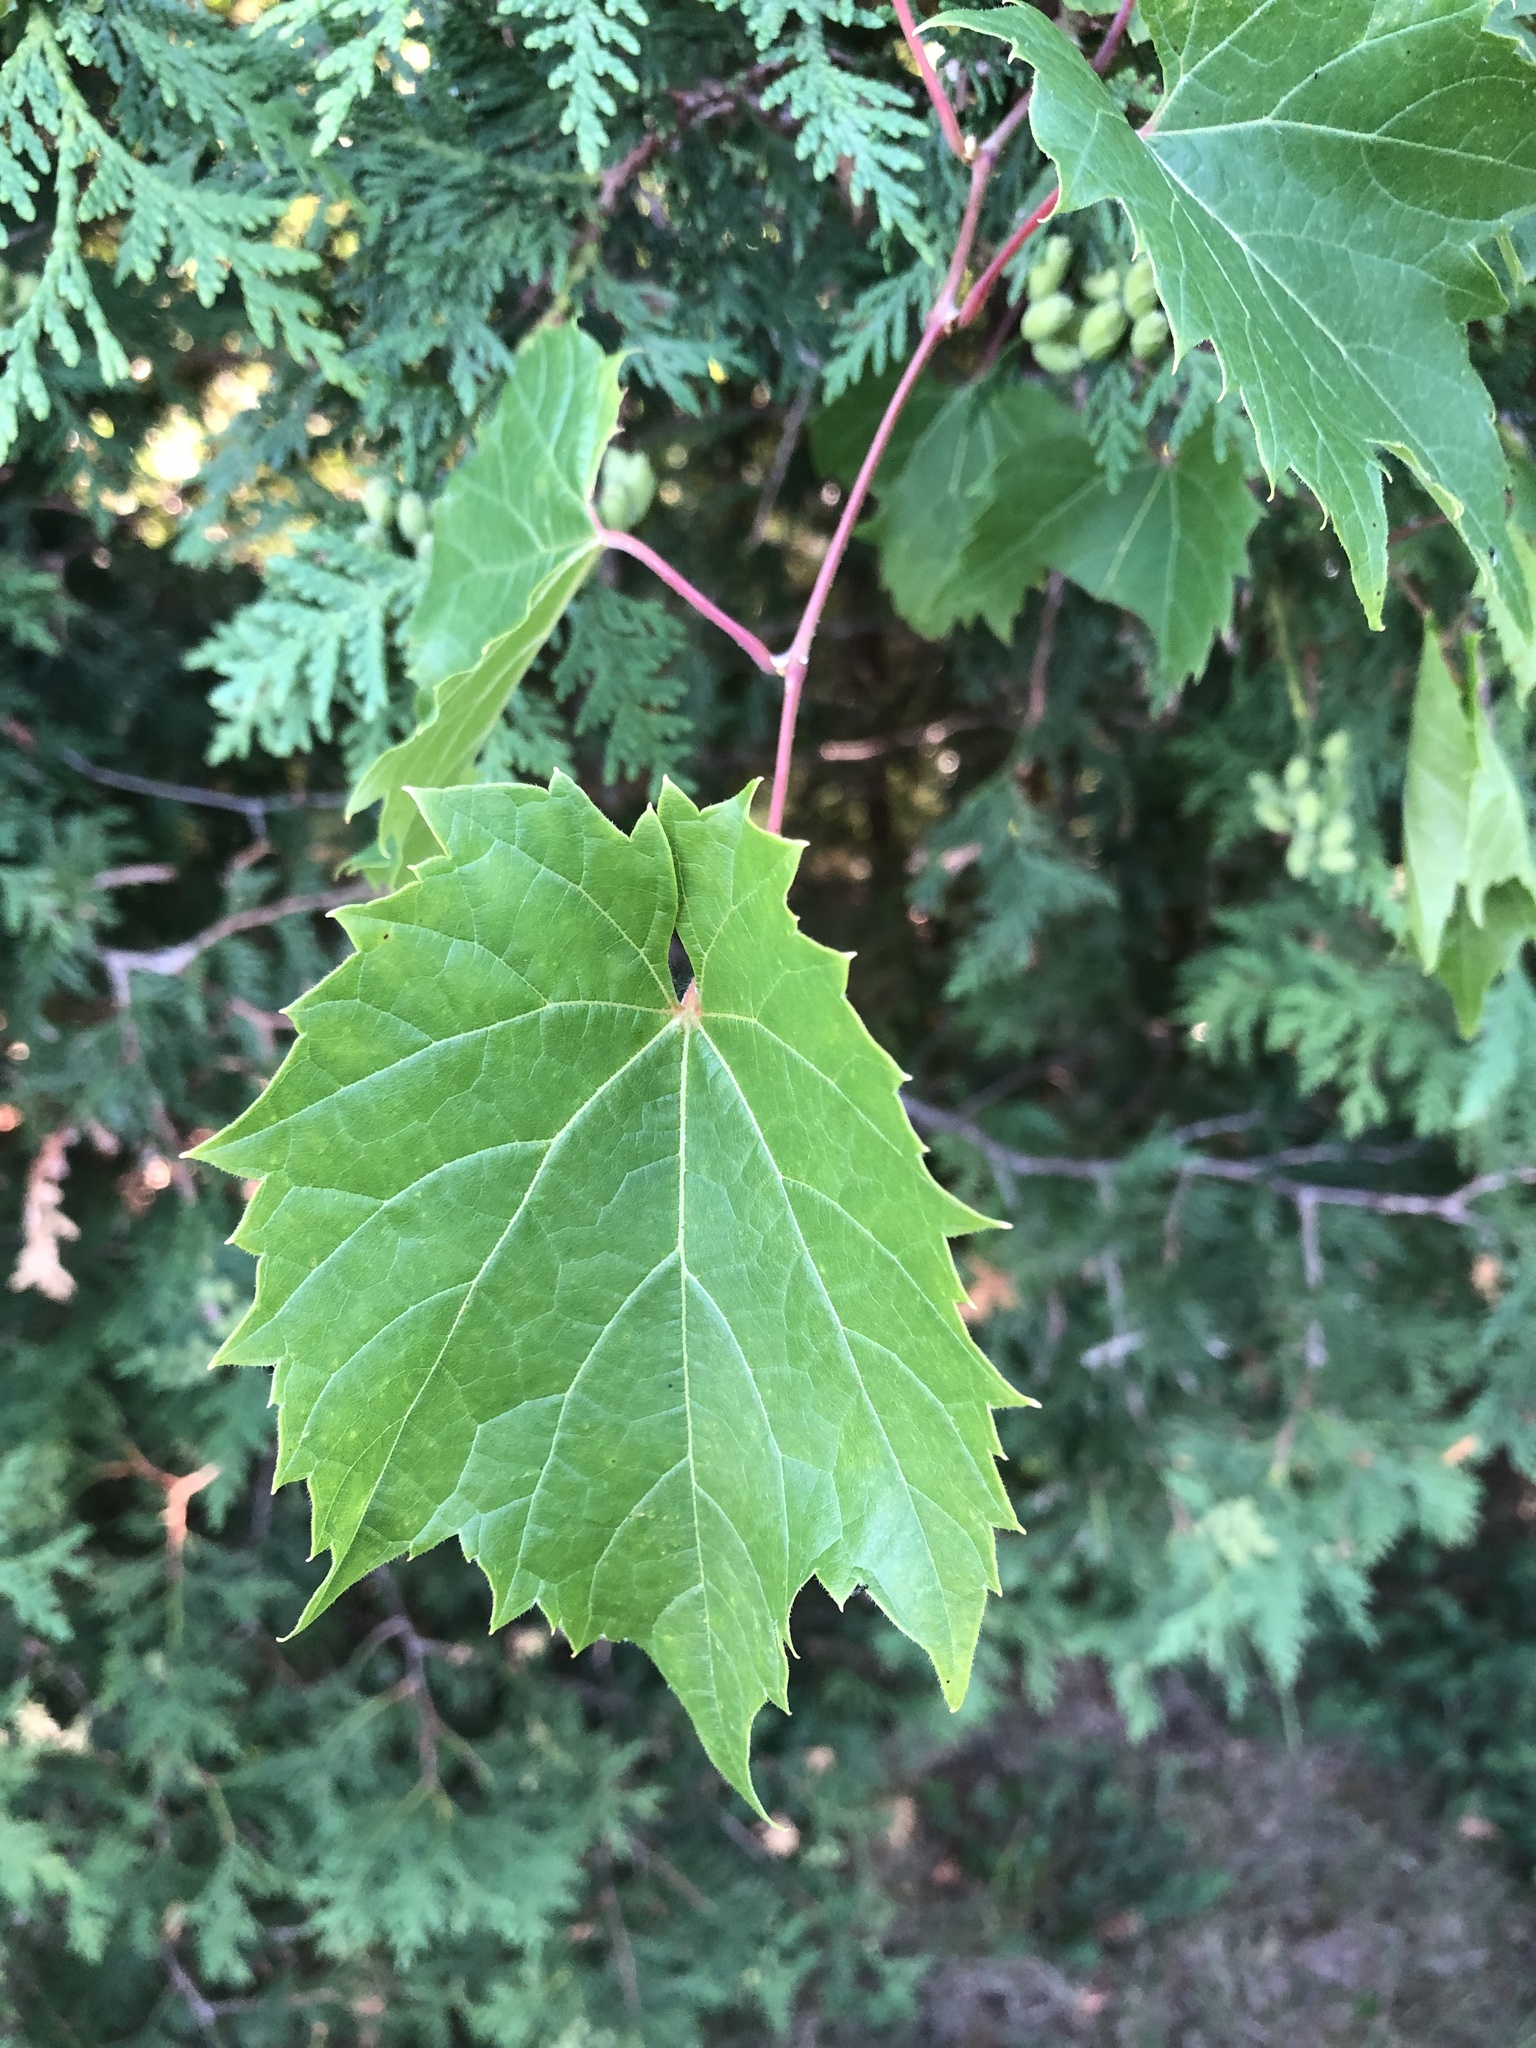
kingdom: Plantae
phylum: Tracheophyta
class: Magnoliopsida
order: Vitales
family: Vitaceae
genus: Vitis
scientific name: Vitis riparia
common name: Frost grape
